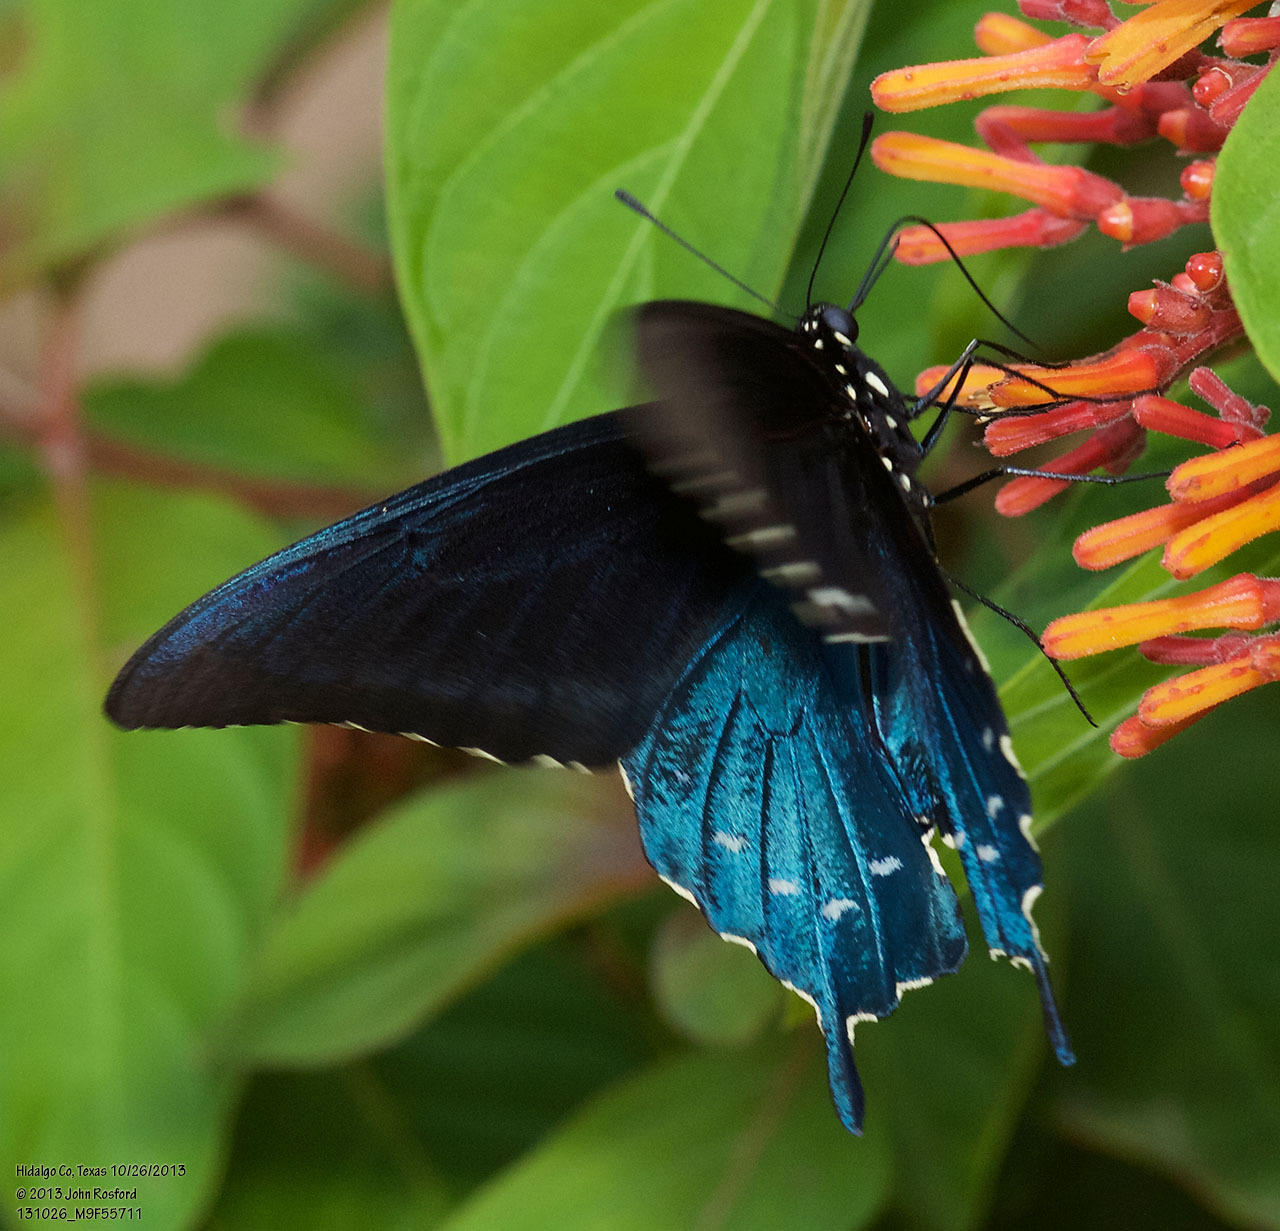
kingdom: Animalia
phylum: Arthropoda
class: Insecta
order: Lepidoptera
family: Papilionidae
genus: Battus
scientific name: Battus philenor
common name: Pipevine swallowtail
